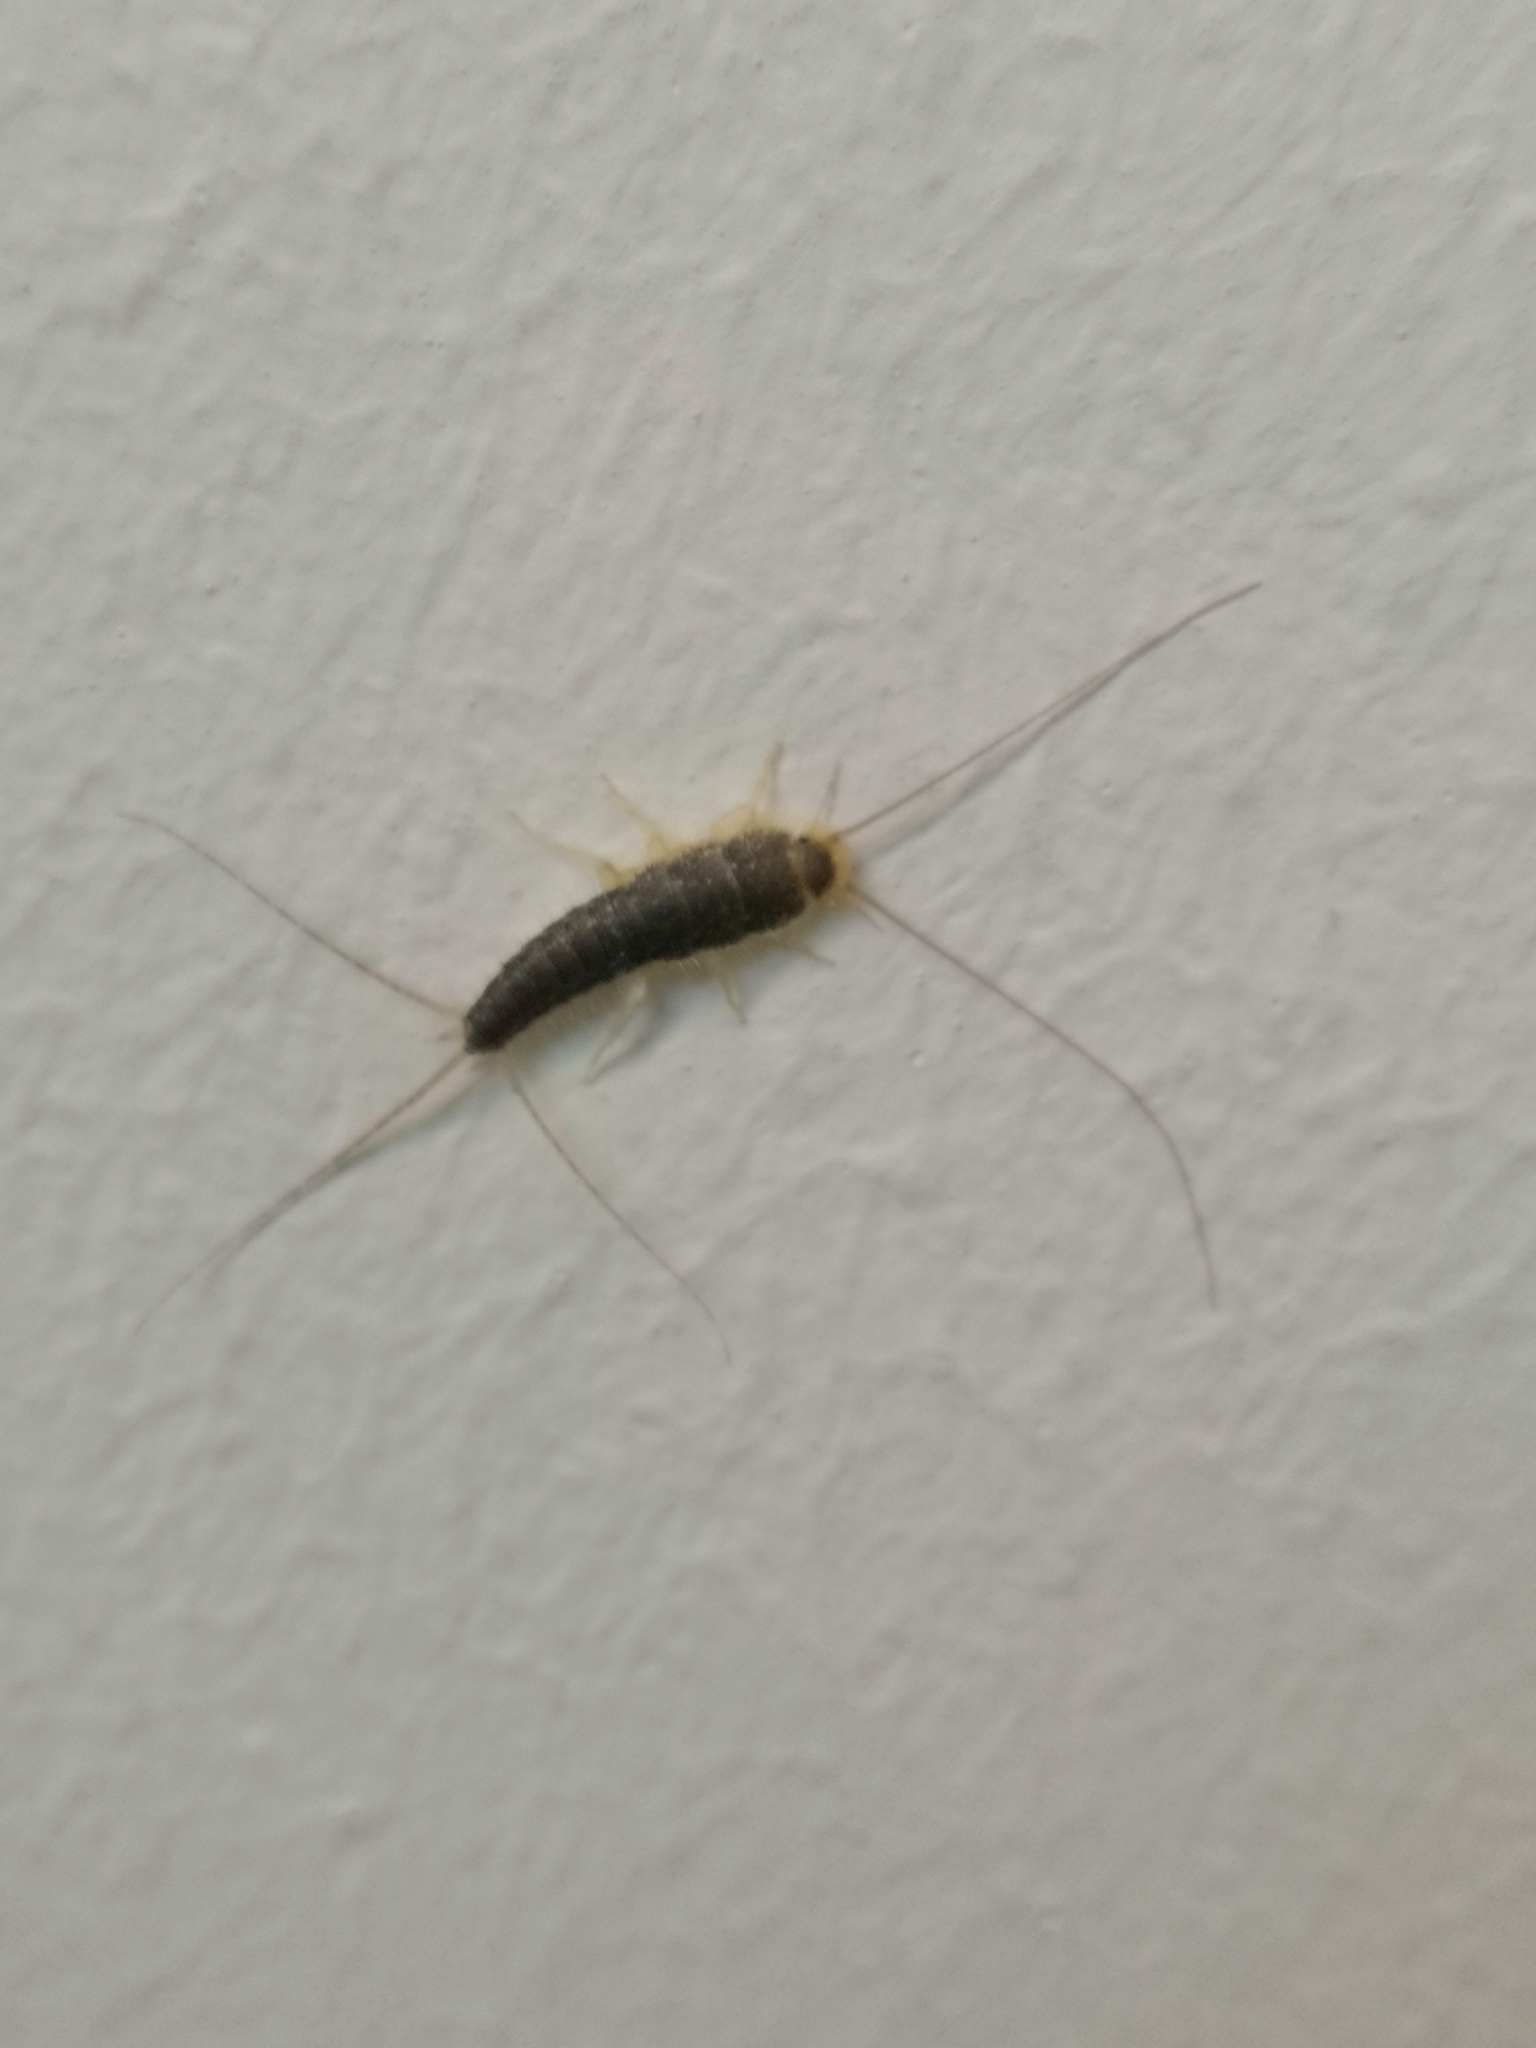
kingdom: Animalia
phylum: Arthropoda
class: Insecta
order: Zygentoma
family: Lepismatidae
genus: Ctenolepisma
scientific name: Ctenolepisma longicaudatum
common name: Silverfish
